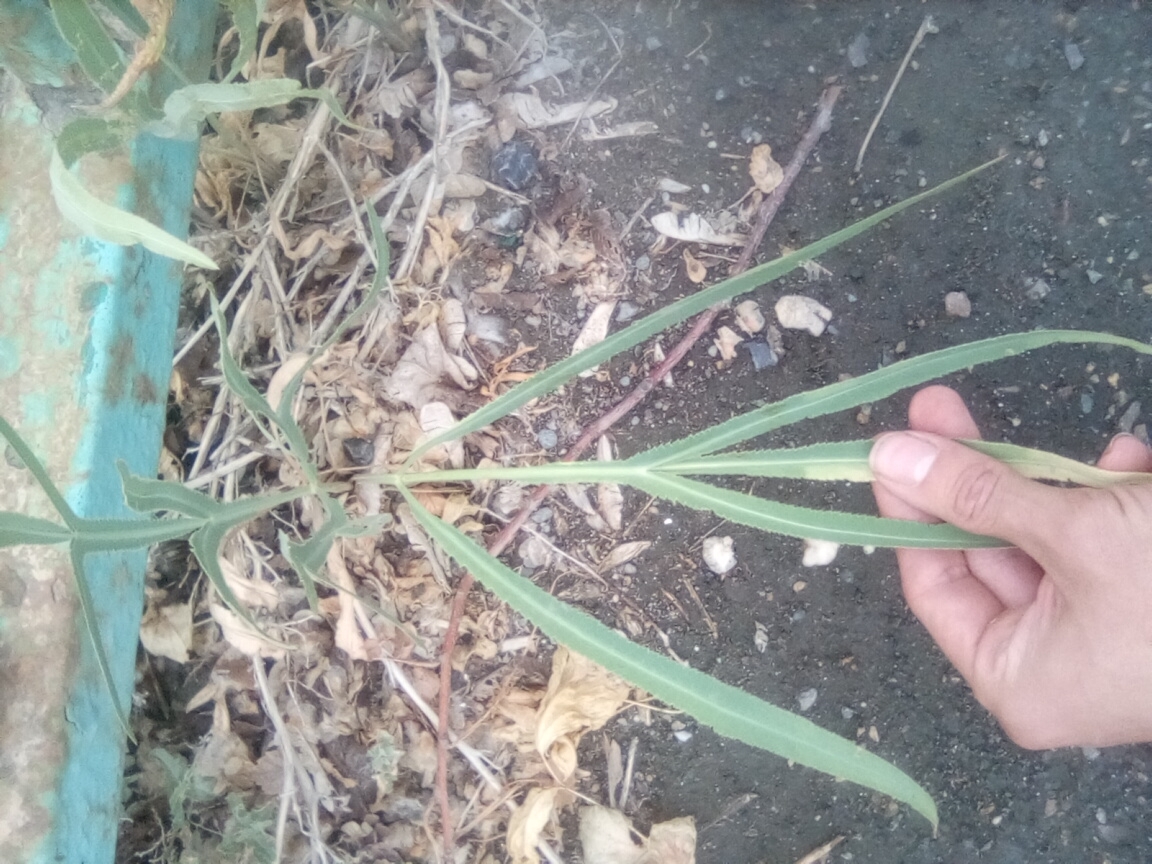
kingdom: Plantae
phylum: Tracheophyta
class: Magnoliopsida
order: Apiales
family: Apiaceae
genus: Falcaria
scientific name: Falcaria vulgaris
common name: Longleaf
